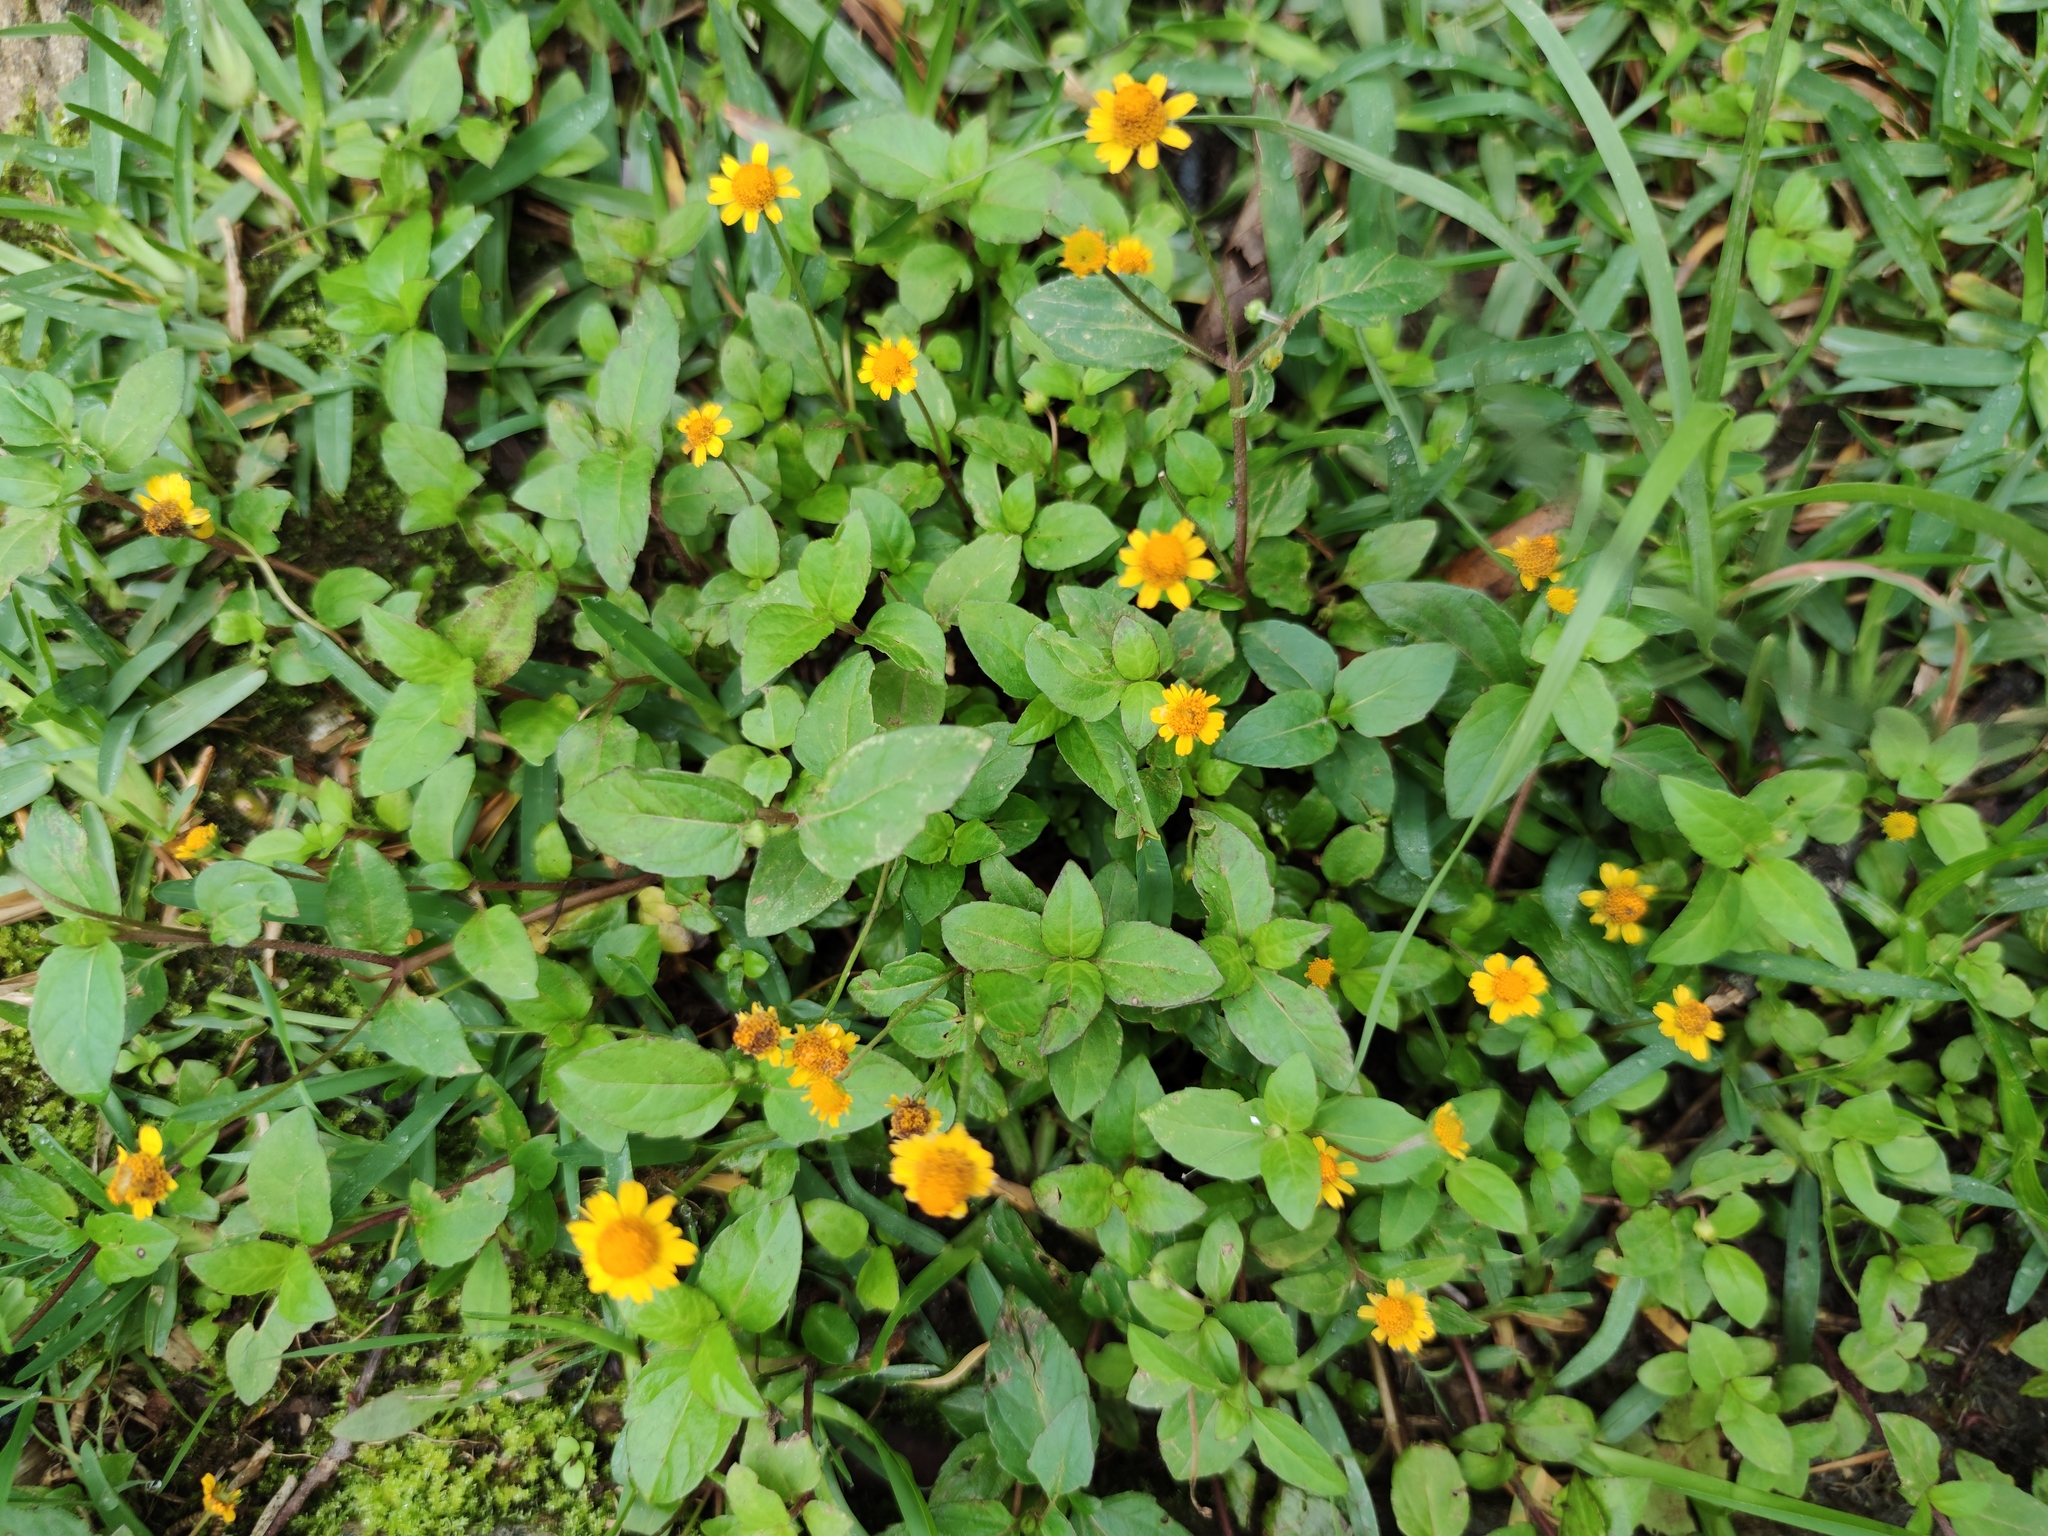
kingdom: Plantae
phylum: Tracheophyta
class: Magnoliopsida
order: Asterales
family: Asteraceae
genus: Acmella
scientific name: Acmella repens
